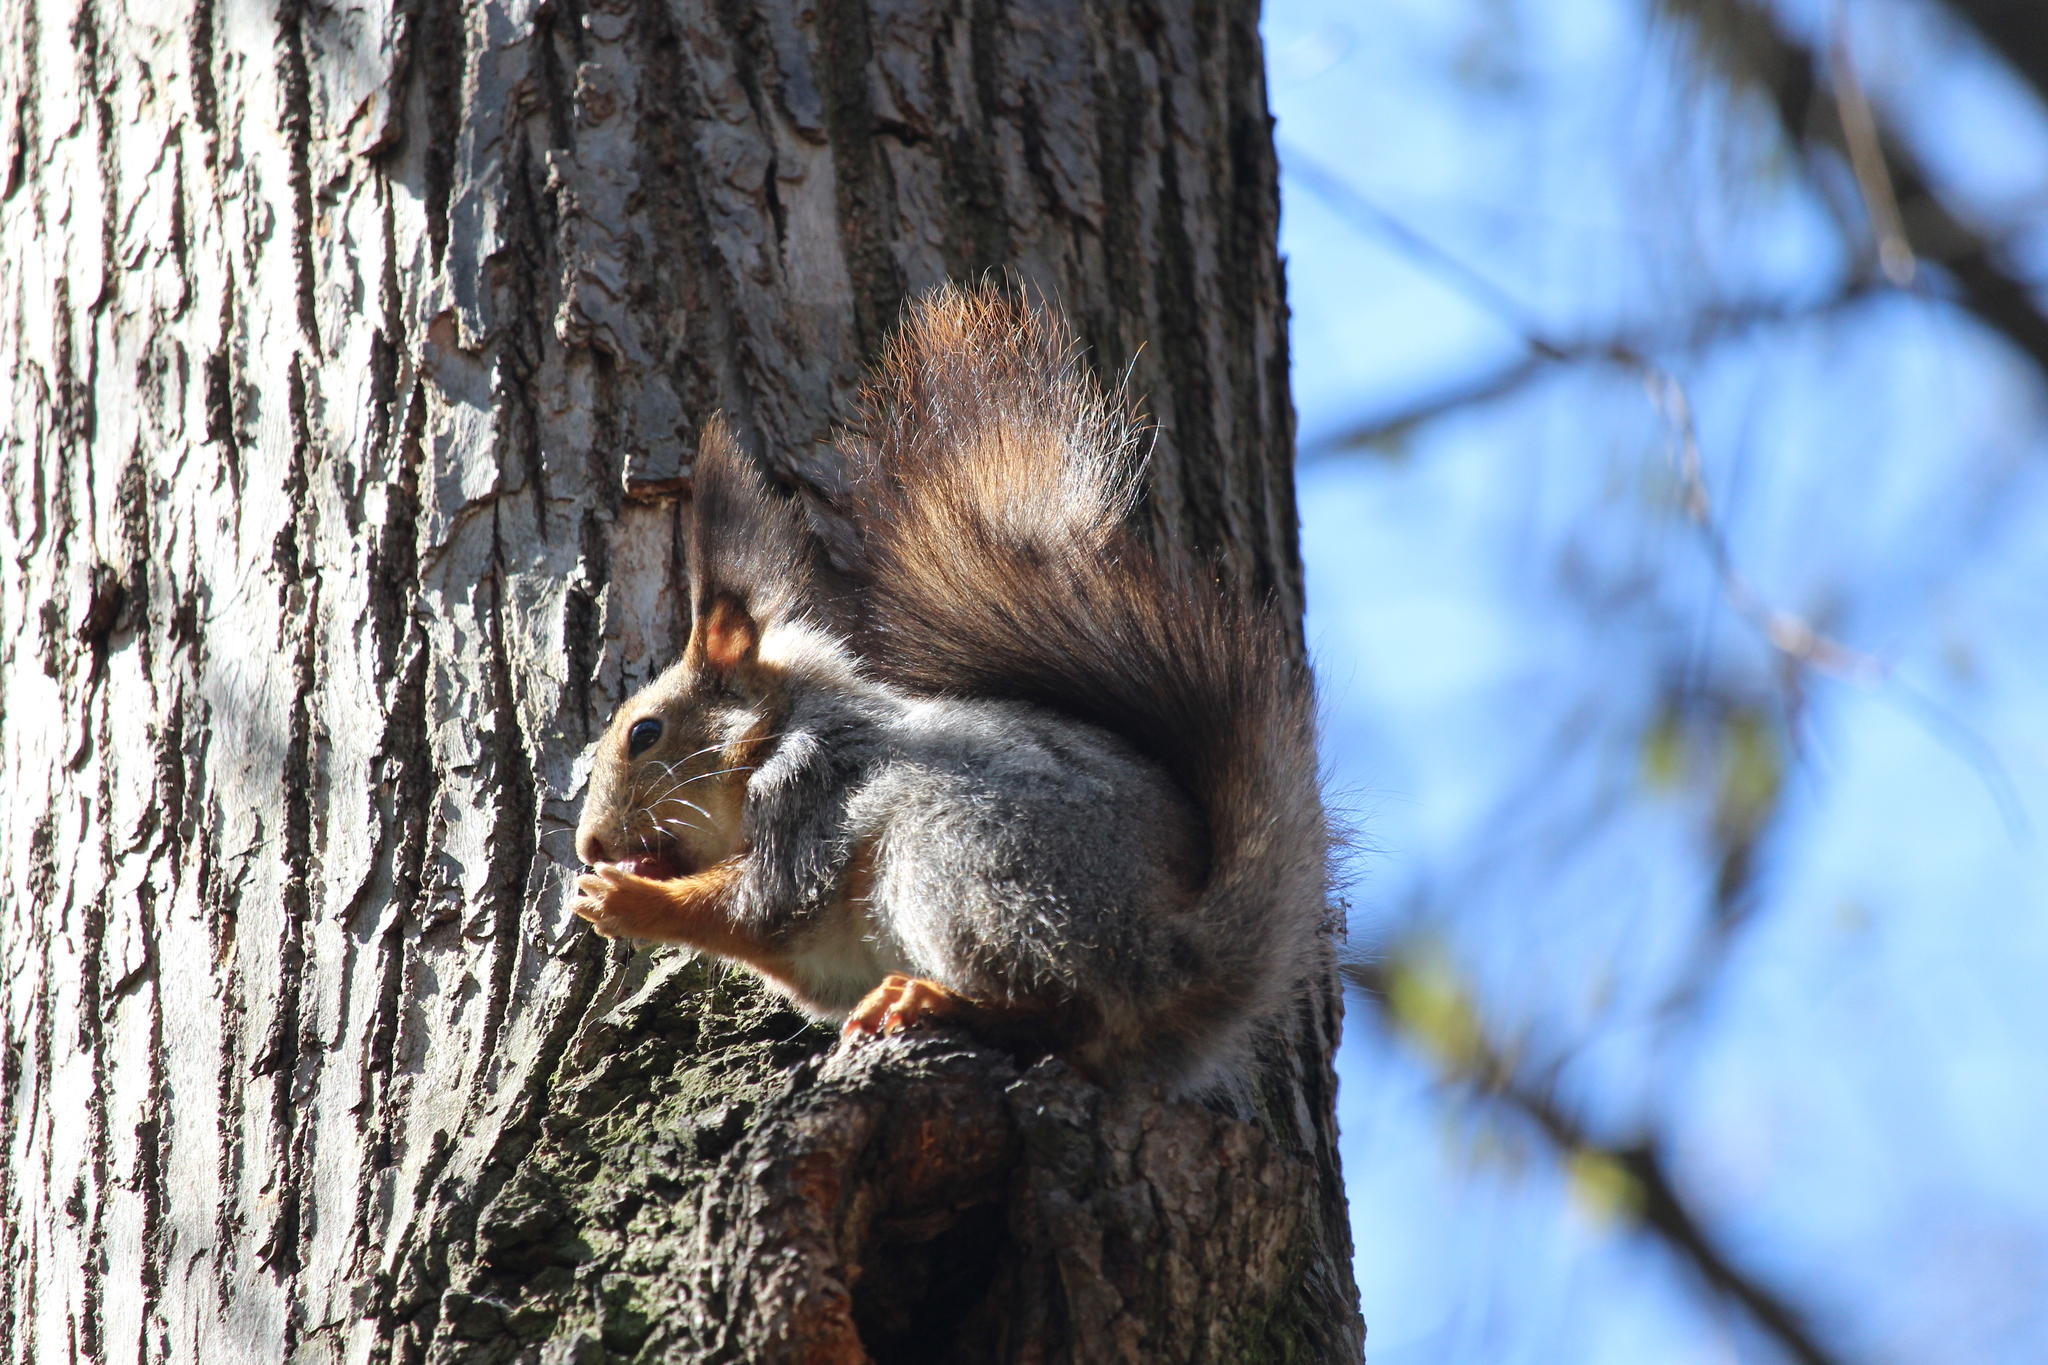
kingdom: Animalia
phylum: Chordata
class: Mammalia
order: Rodentia
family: Sciuridae
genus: Sciurus
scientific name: Sciurus vulgaris
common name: Eurasian red squirrel
